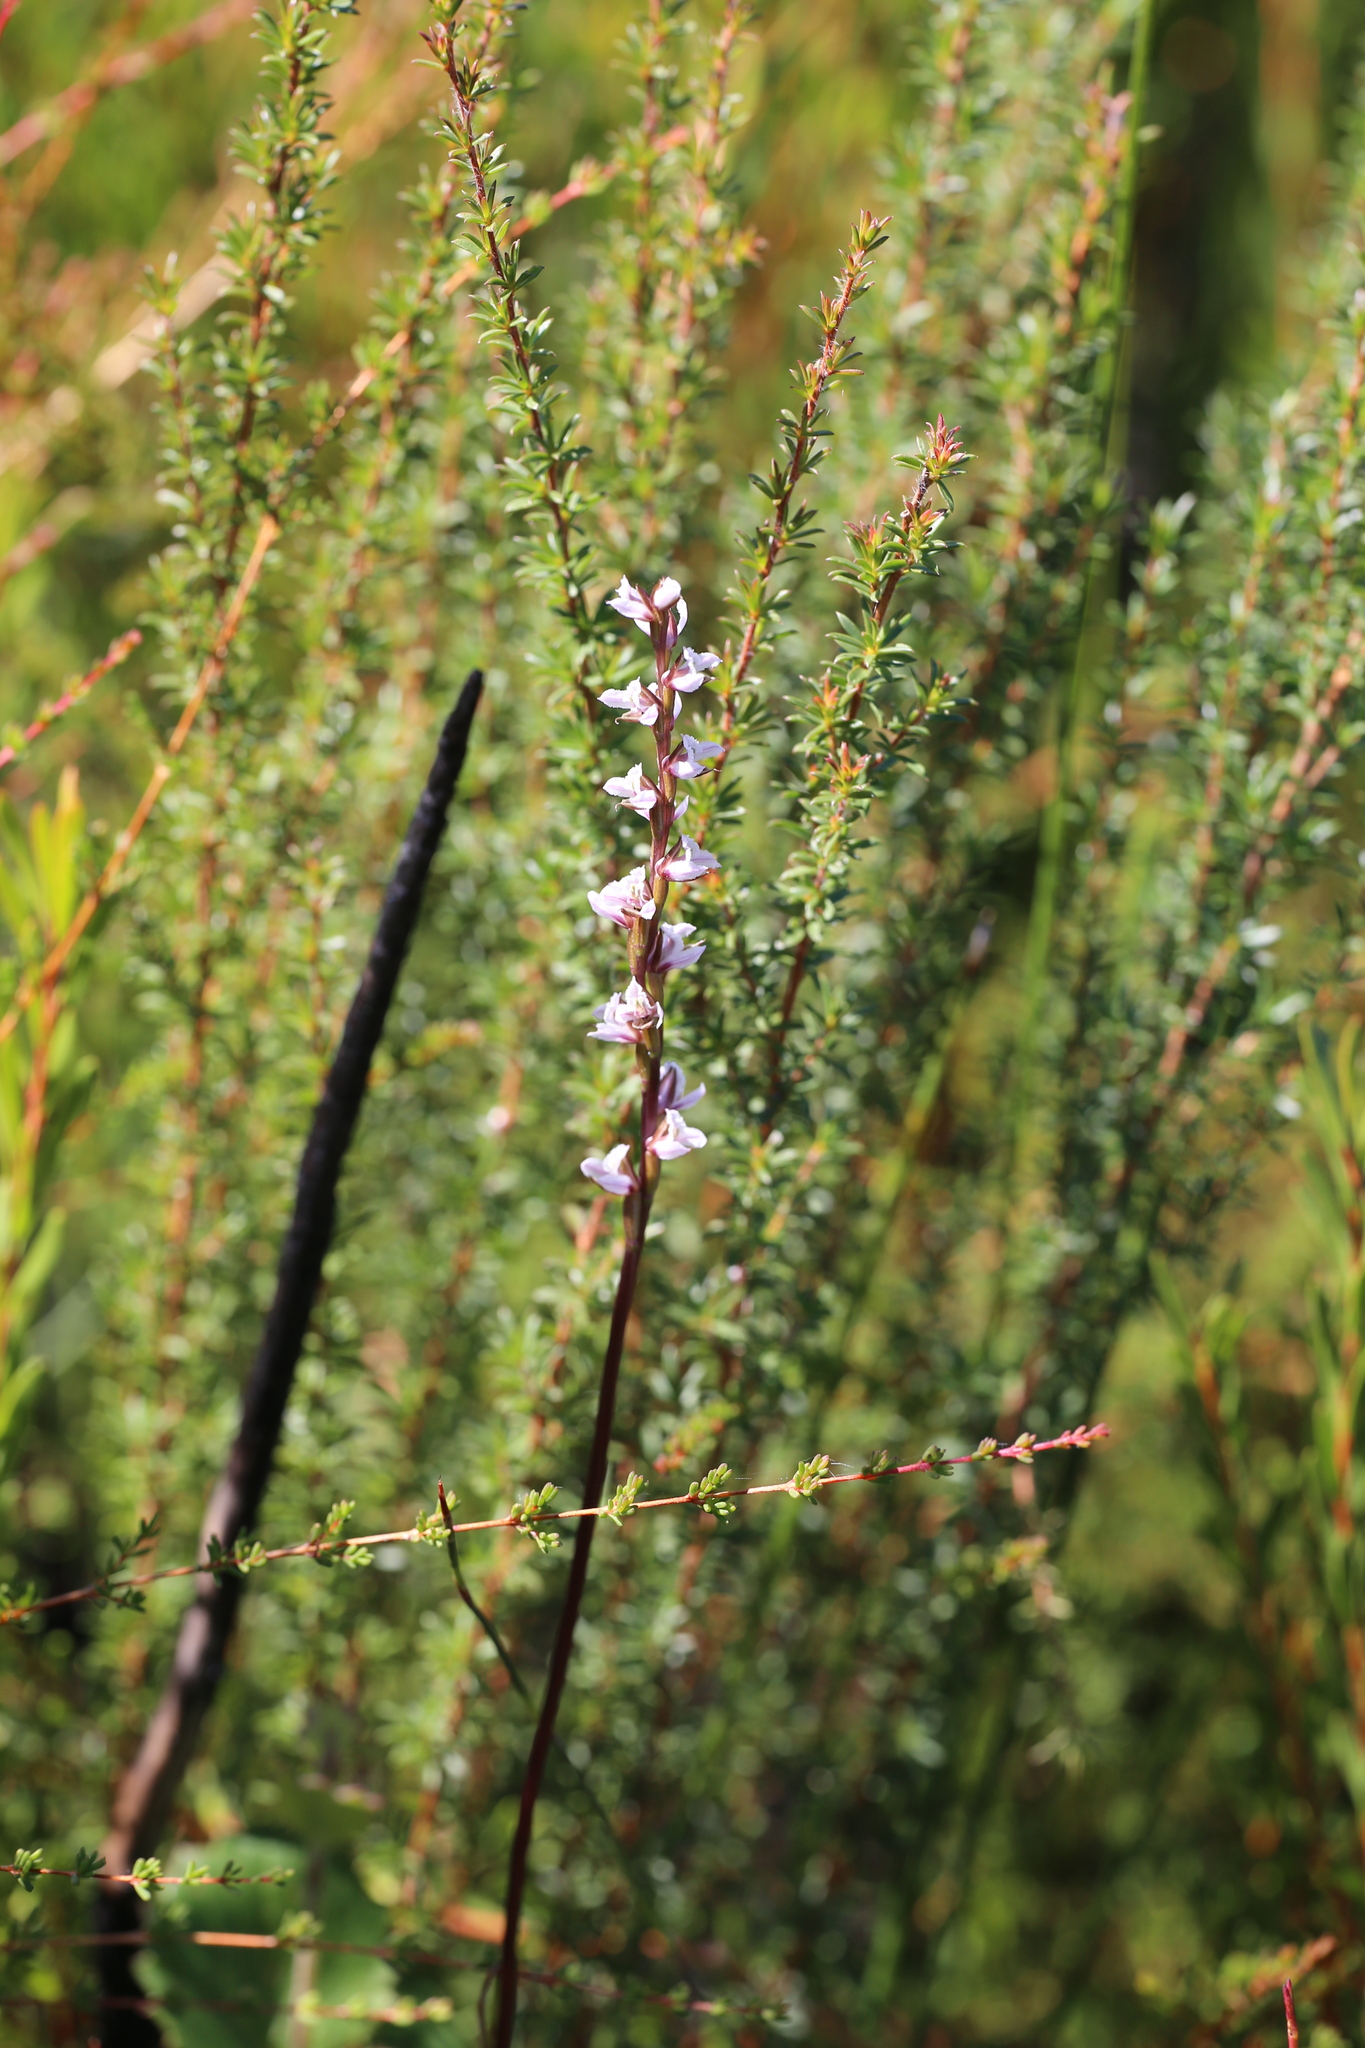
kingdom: Plantae
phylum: Tracheophyta
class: Liliopsida
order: Asparagales
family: Orchidaceae
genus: Prasophyllum
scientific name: Prasophyllum hians
